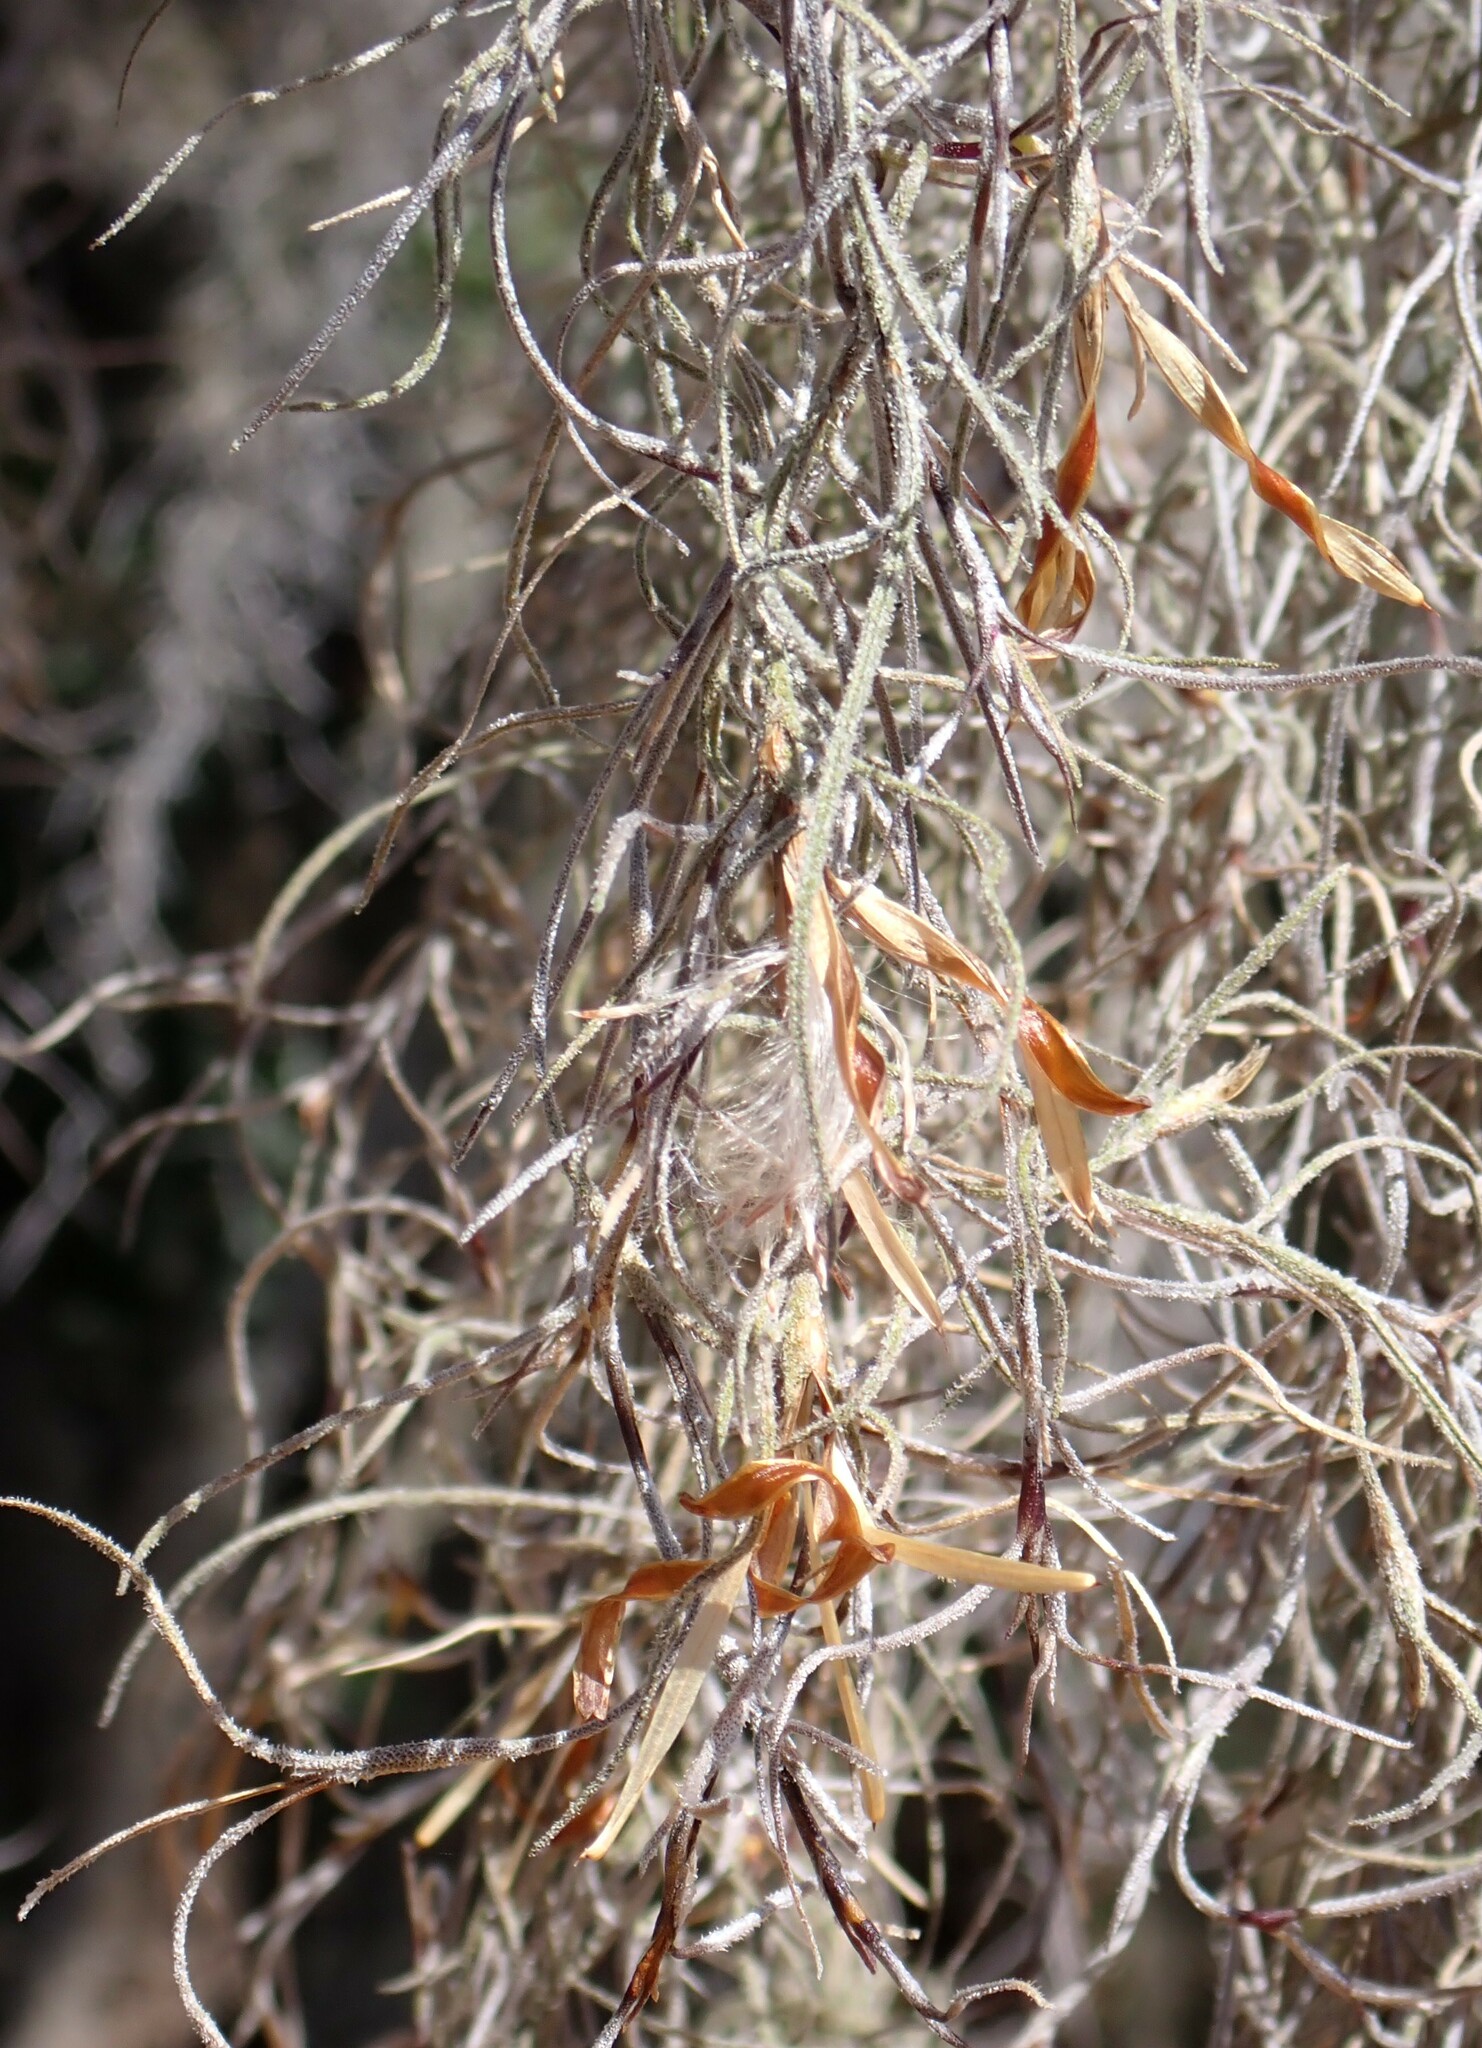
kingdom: Plantae
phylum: Tracheophyta
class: Liliopsida
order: Poales
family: Bromeliaceae
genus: Tillandsia
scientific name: Tillandsia usneoides
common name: Spanish moss
